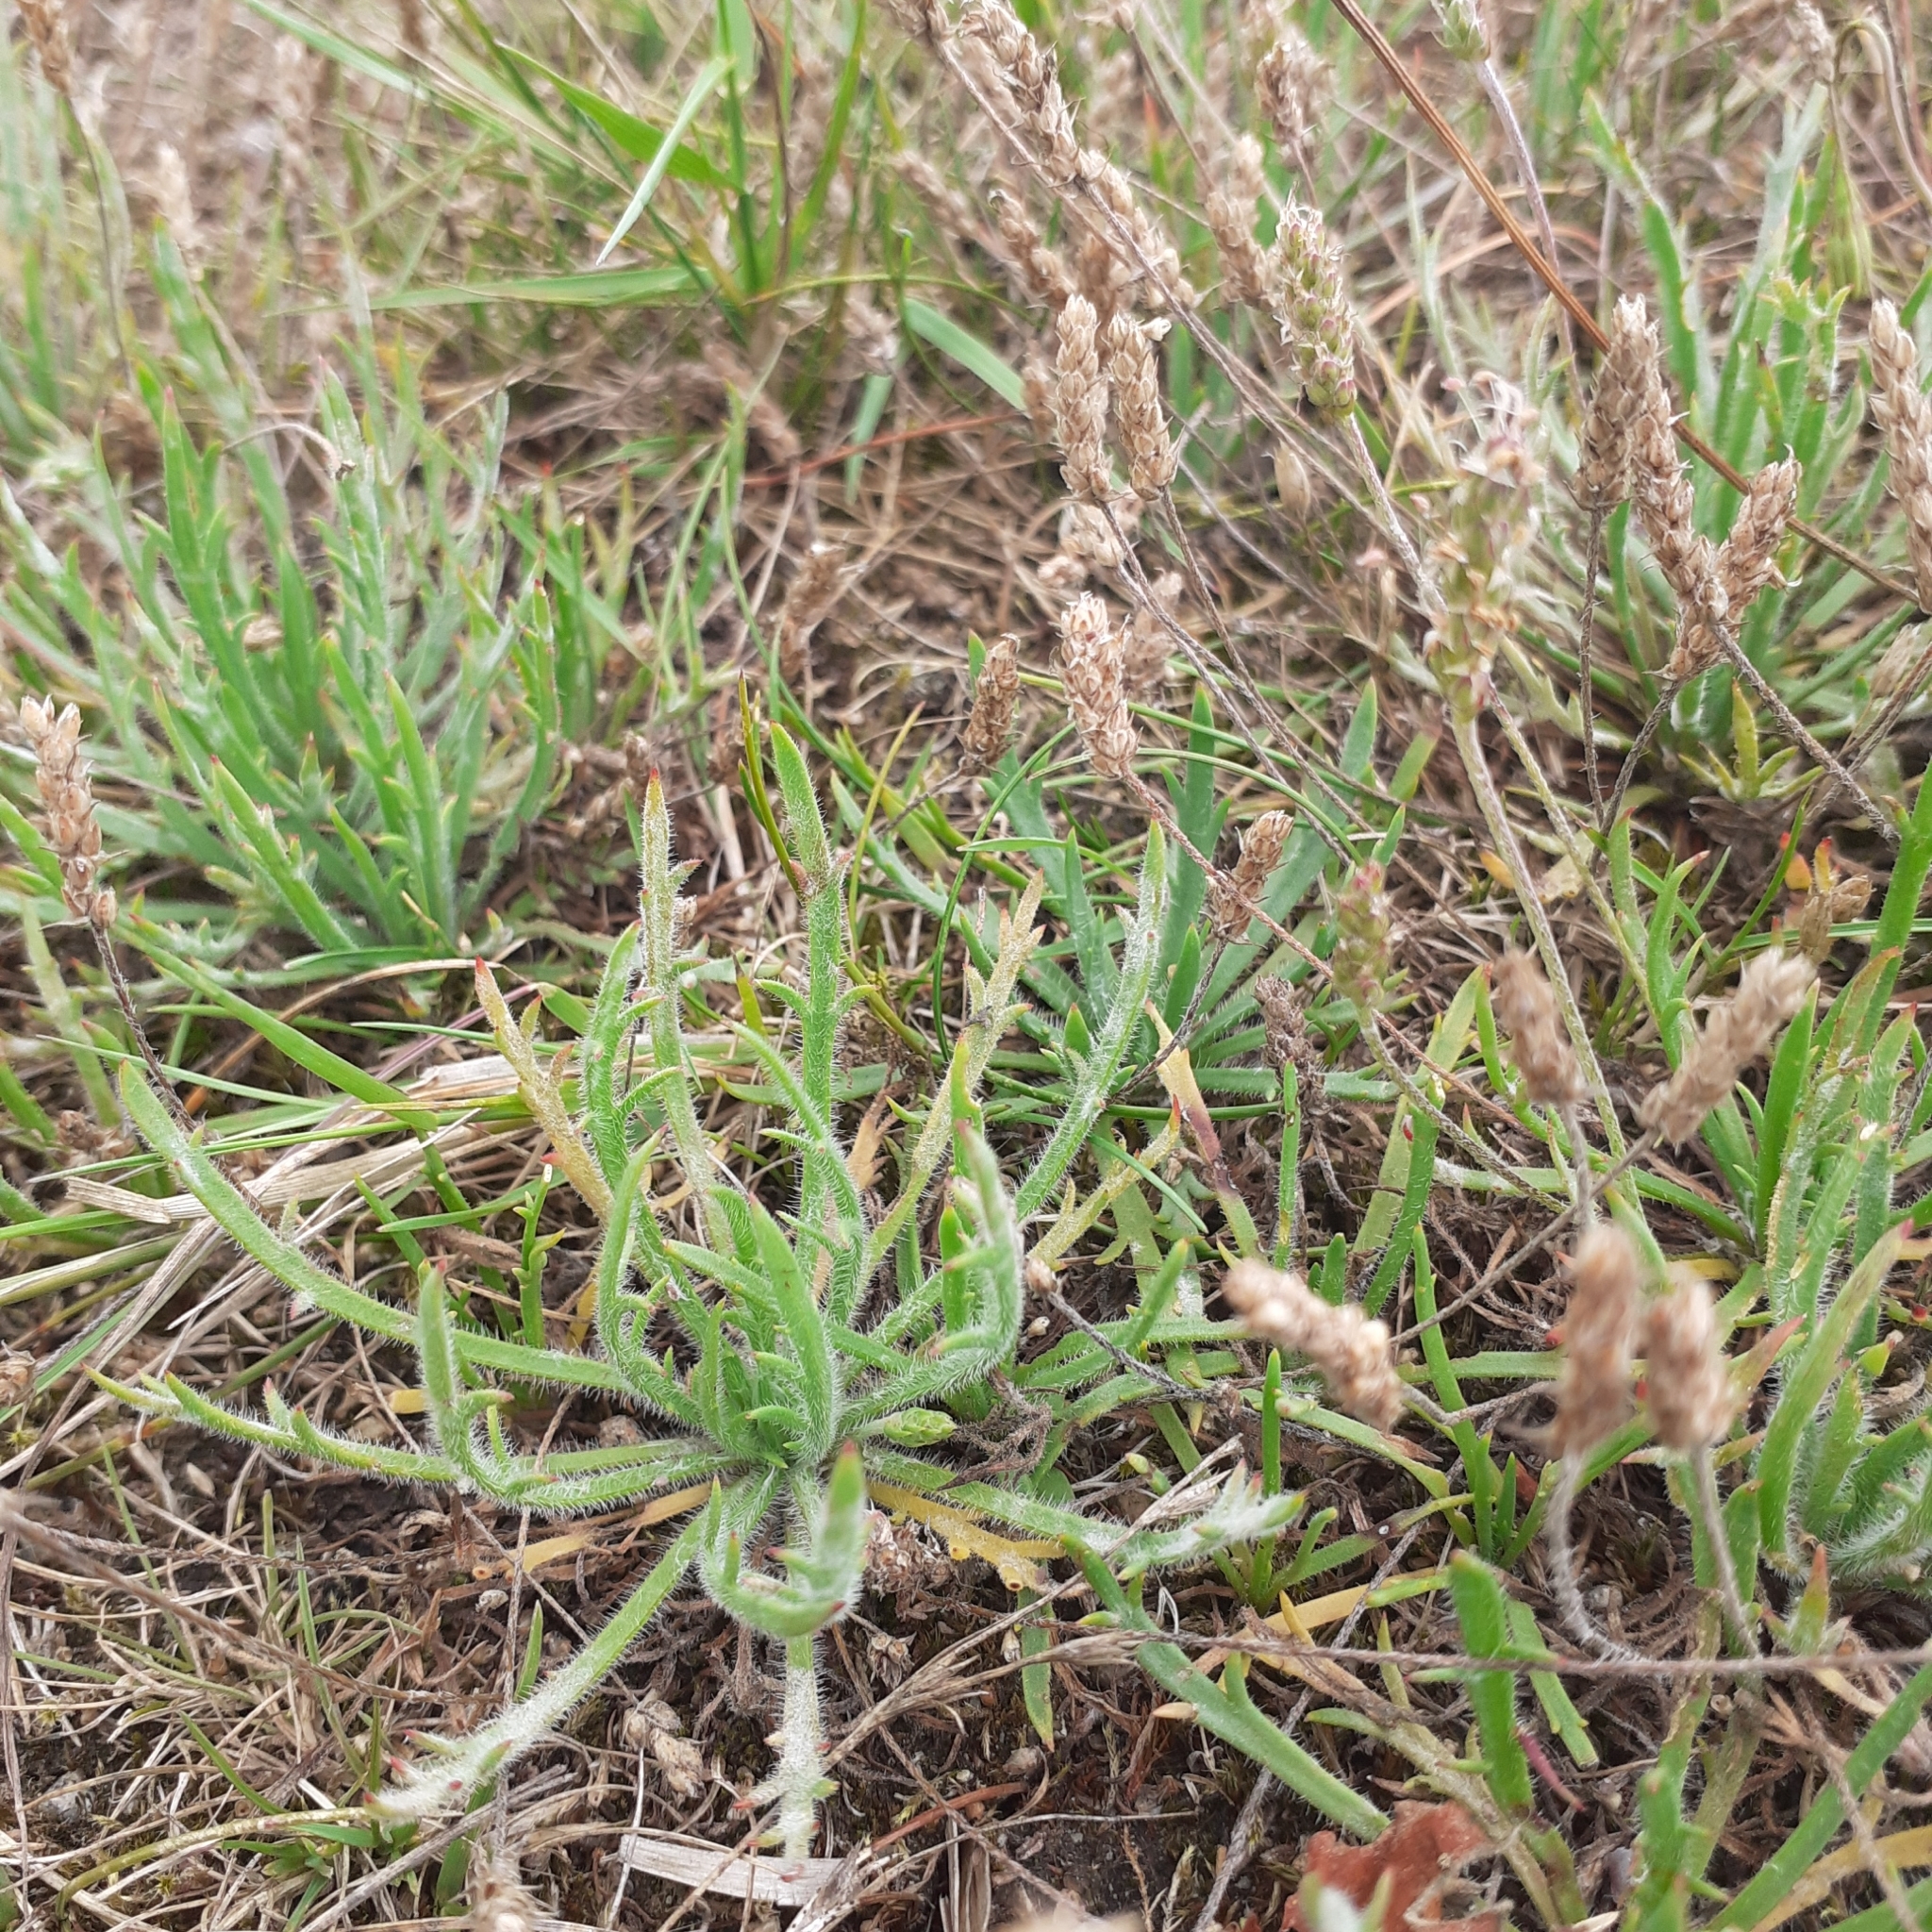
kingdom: Plantae
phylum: Tracheophyta
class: Magnoliopsida
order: Lamiales
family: Plantaginaceae
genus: Plantago
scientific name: Plantago coronopus
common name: Buck's-horn plantain
